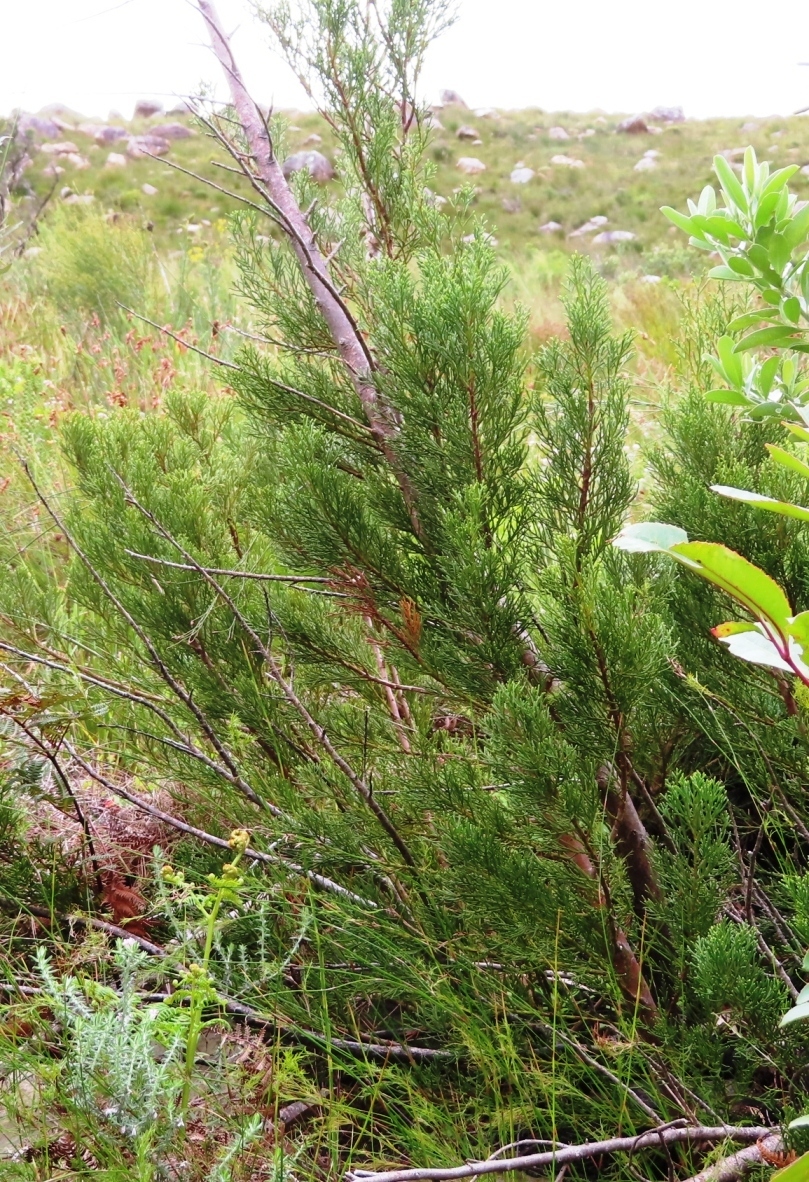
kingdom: Plantae
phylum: Tracheophyta
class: Pinopsida
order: Pinales
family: Cupressaceae
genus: Widdringtonia
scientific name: Widdringtonia nodiflora
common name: Cape cypress
